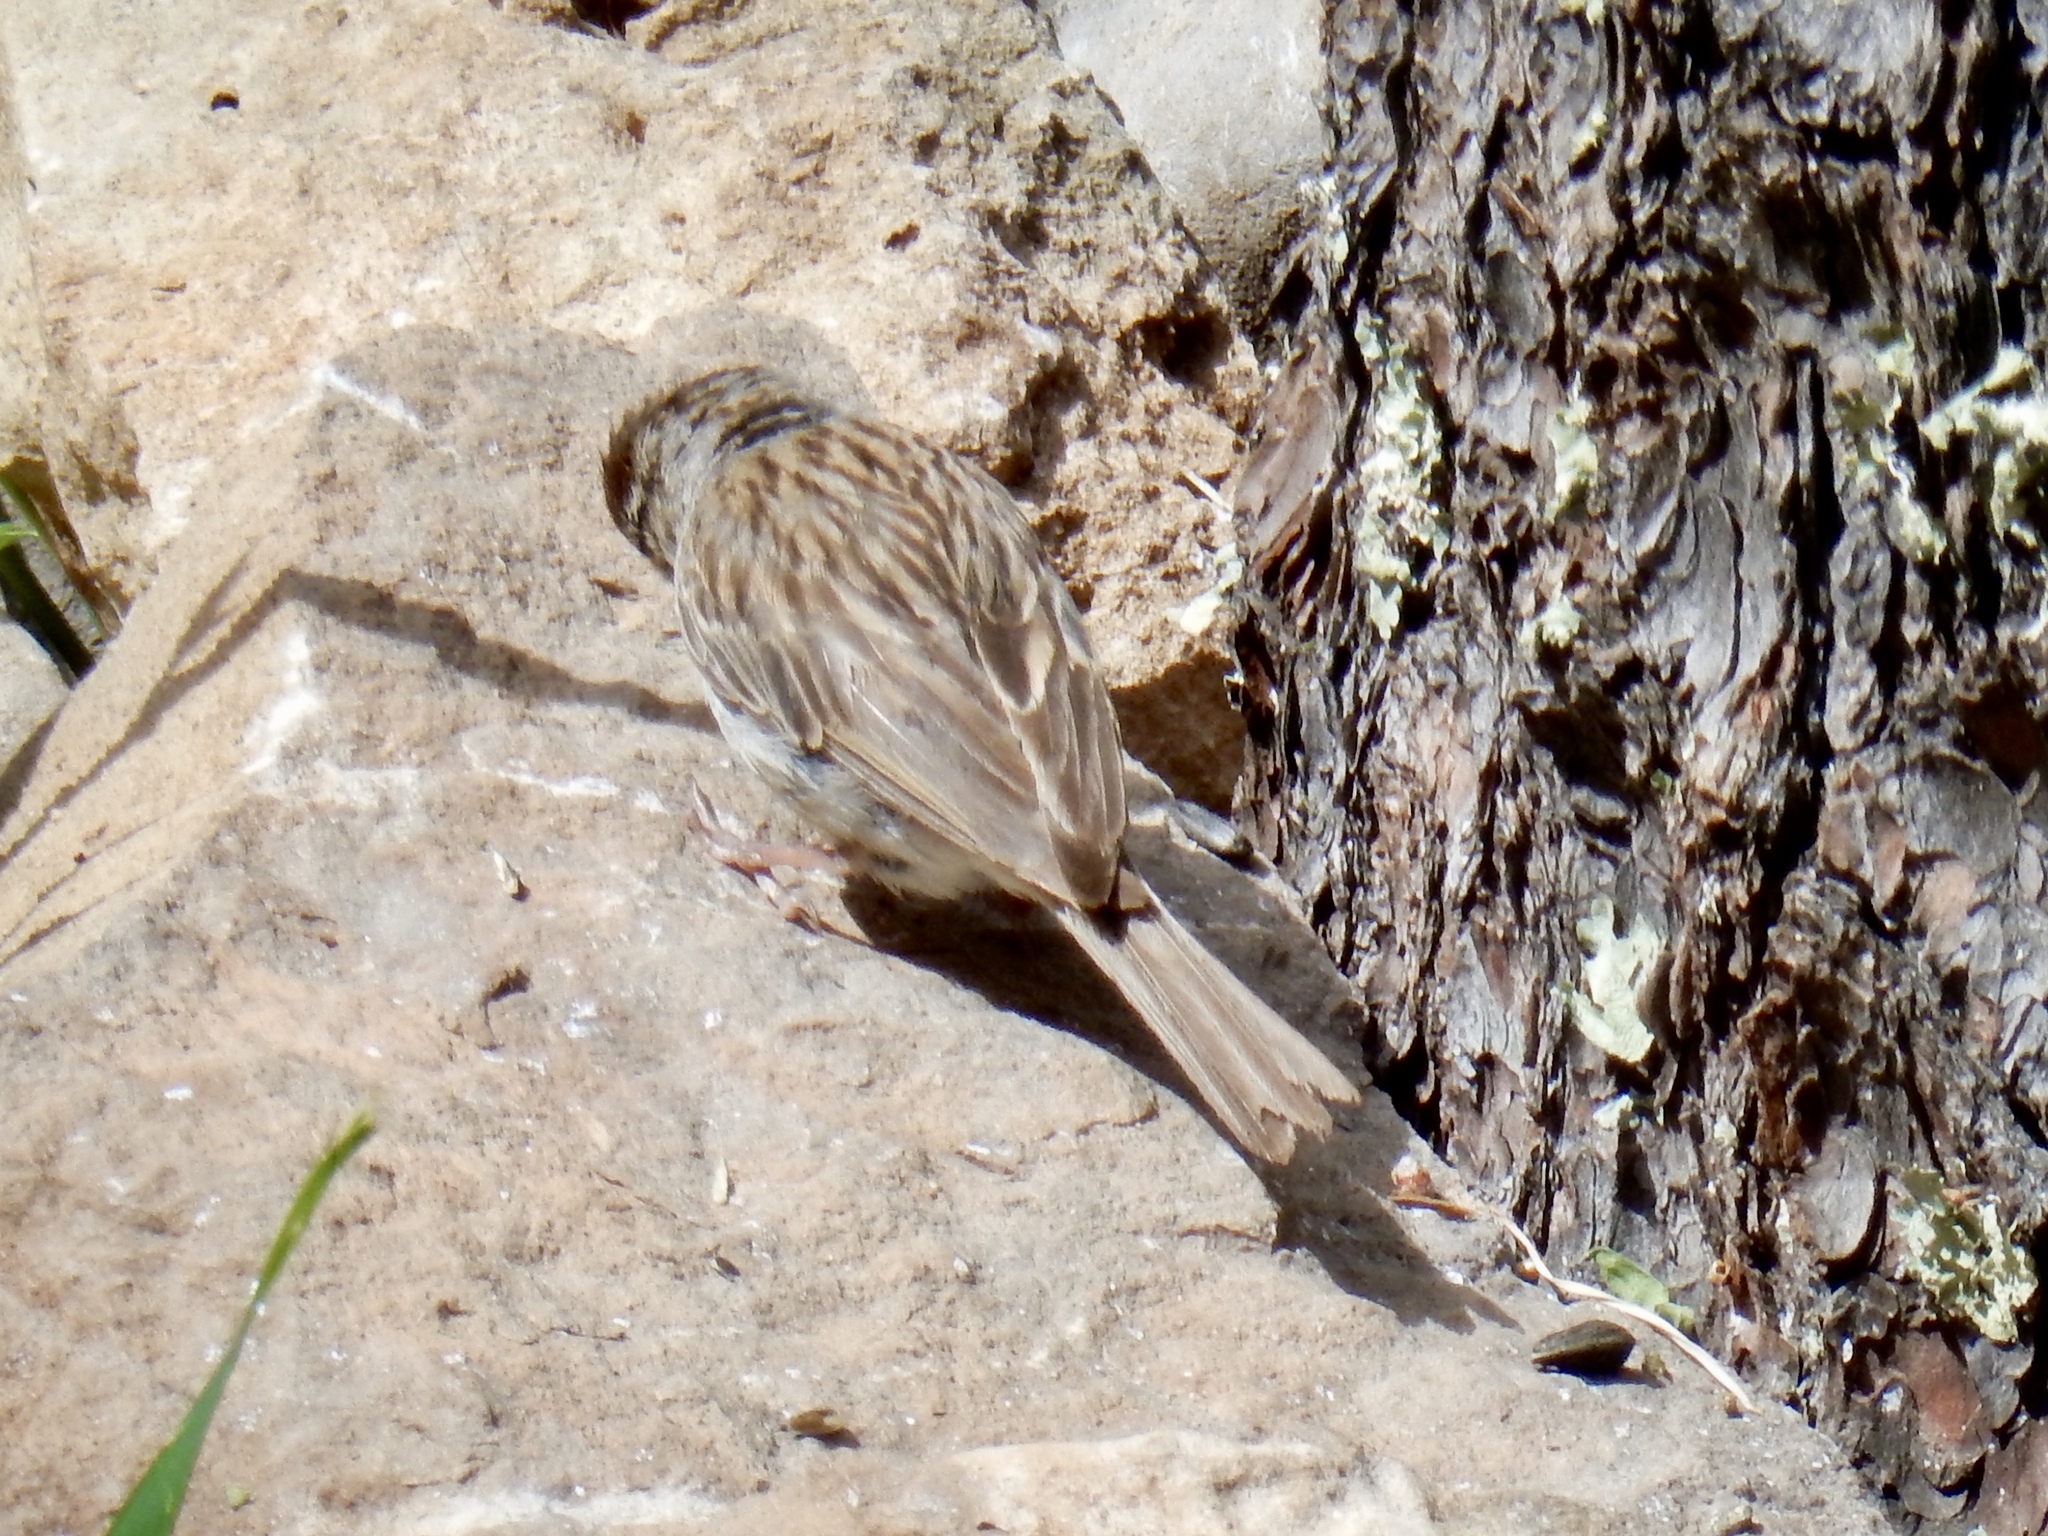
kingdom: Animalia
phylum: Chordata
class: Aves
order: Passeriformes
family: Passerellidae
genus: Spizella
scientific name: Spizella passerina
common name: Chipping sparrow
